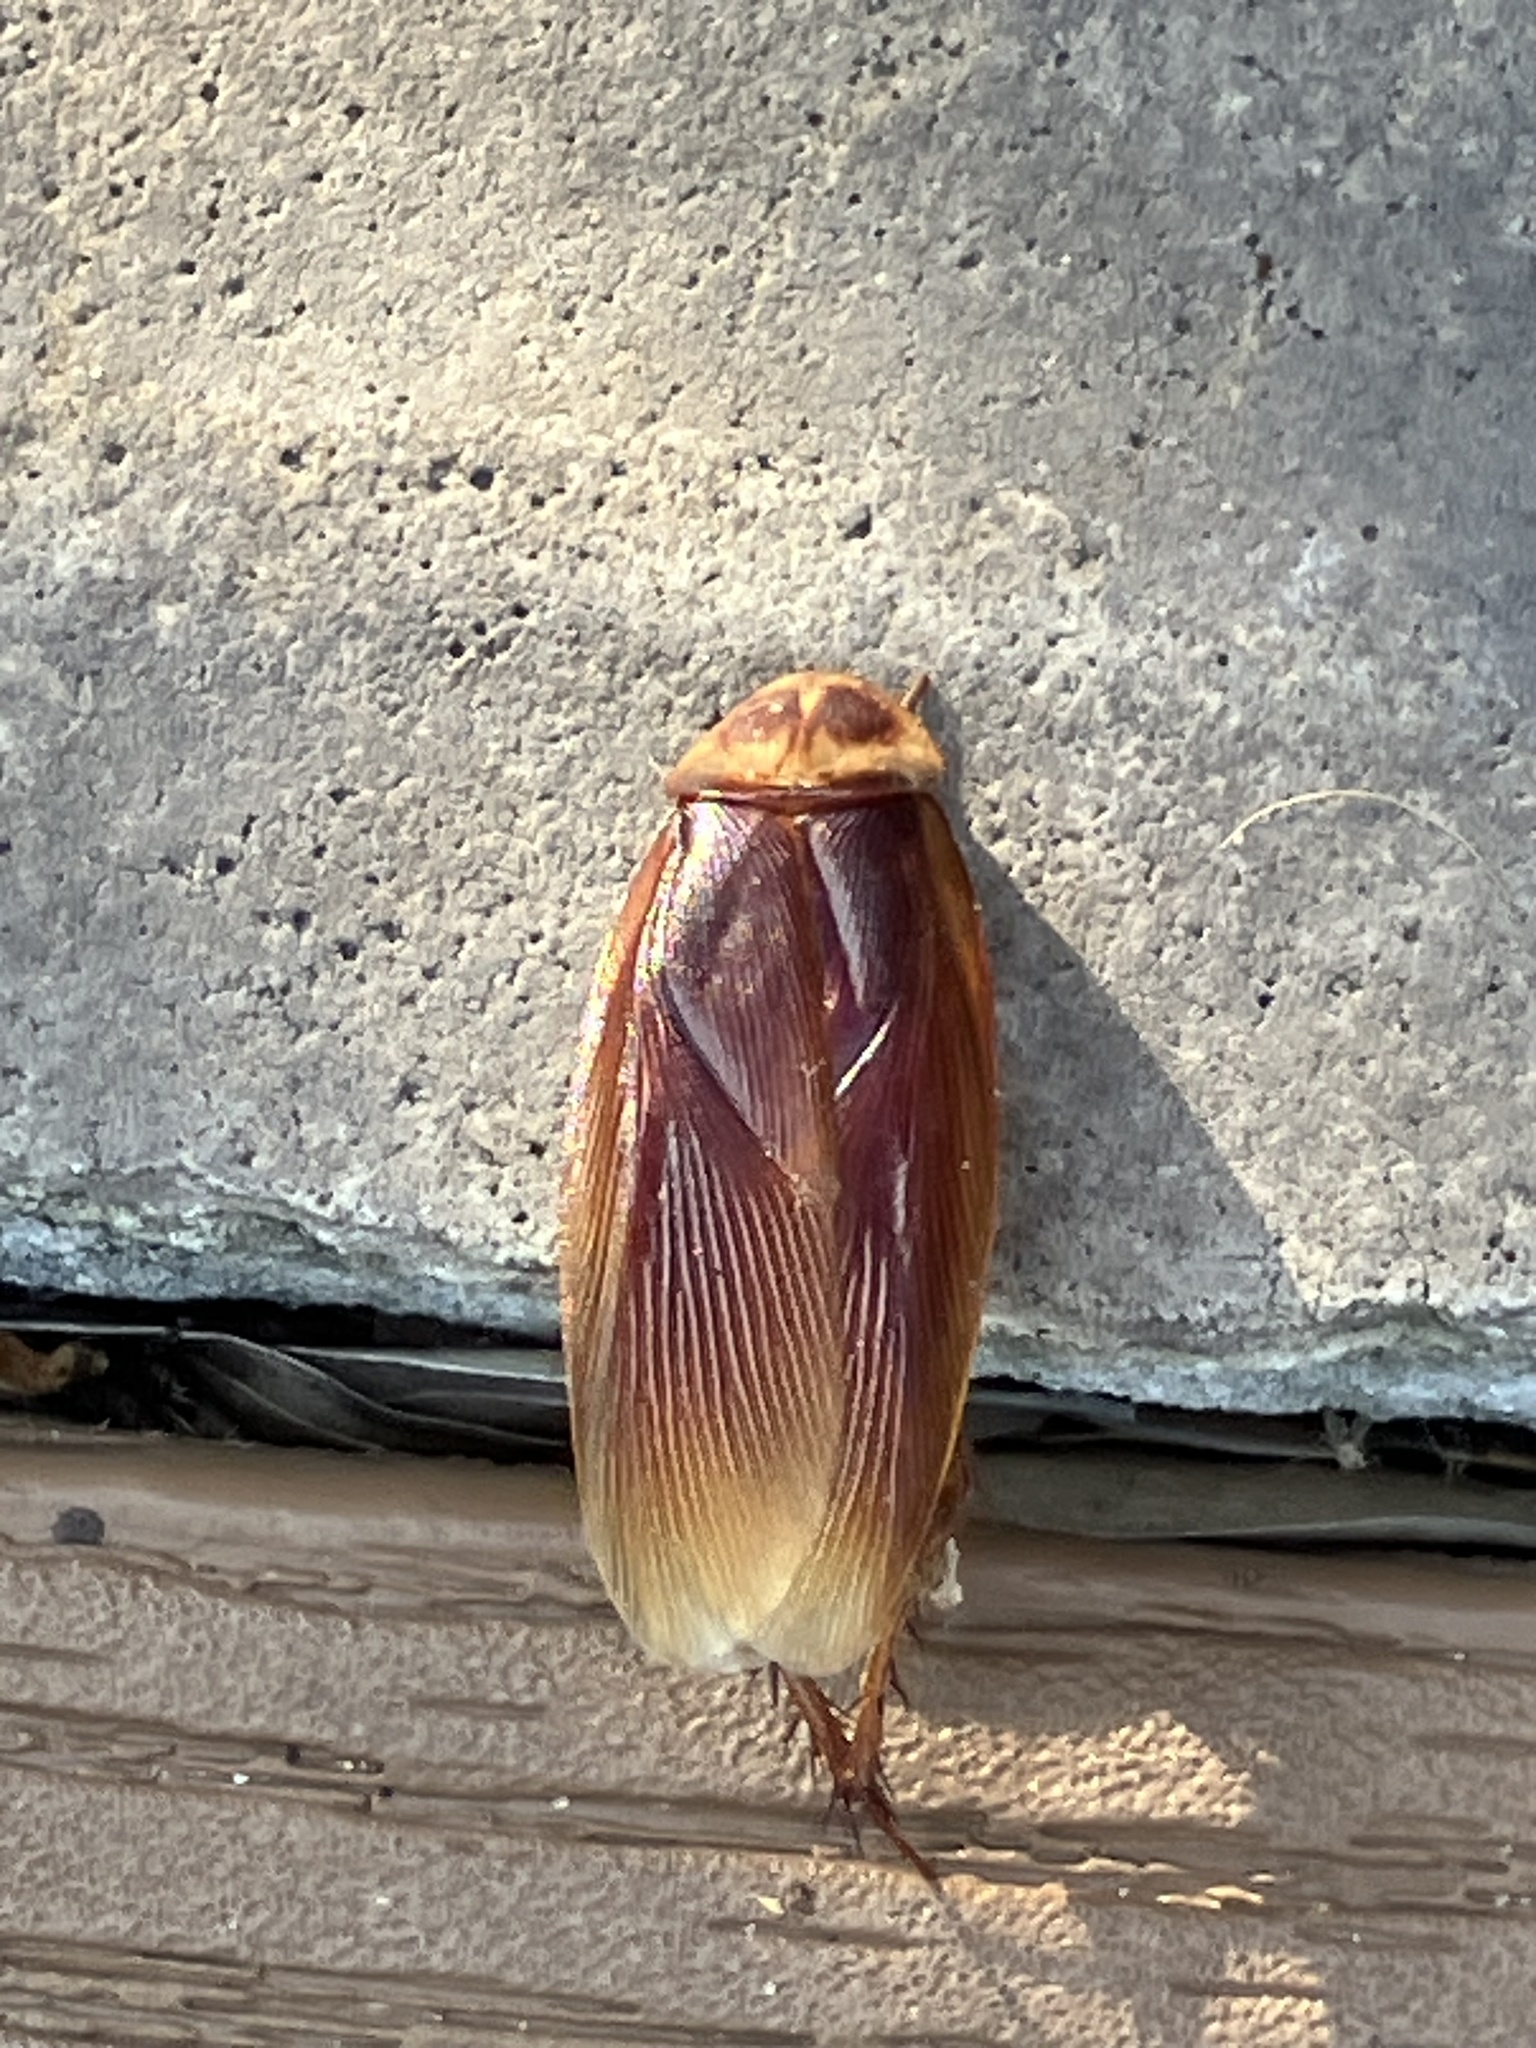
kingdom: Animalia
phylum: Arthropoda
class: Insecta
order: Blattodea
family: Blattidae
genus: Periplaneta
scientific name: Periplaneta americana
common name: American cockroach
